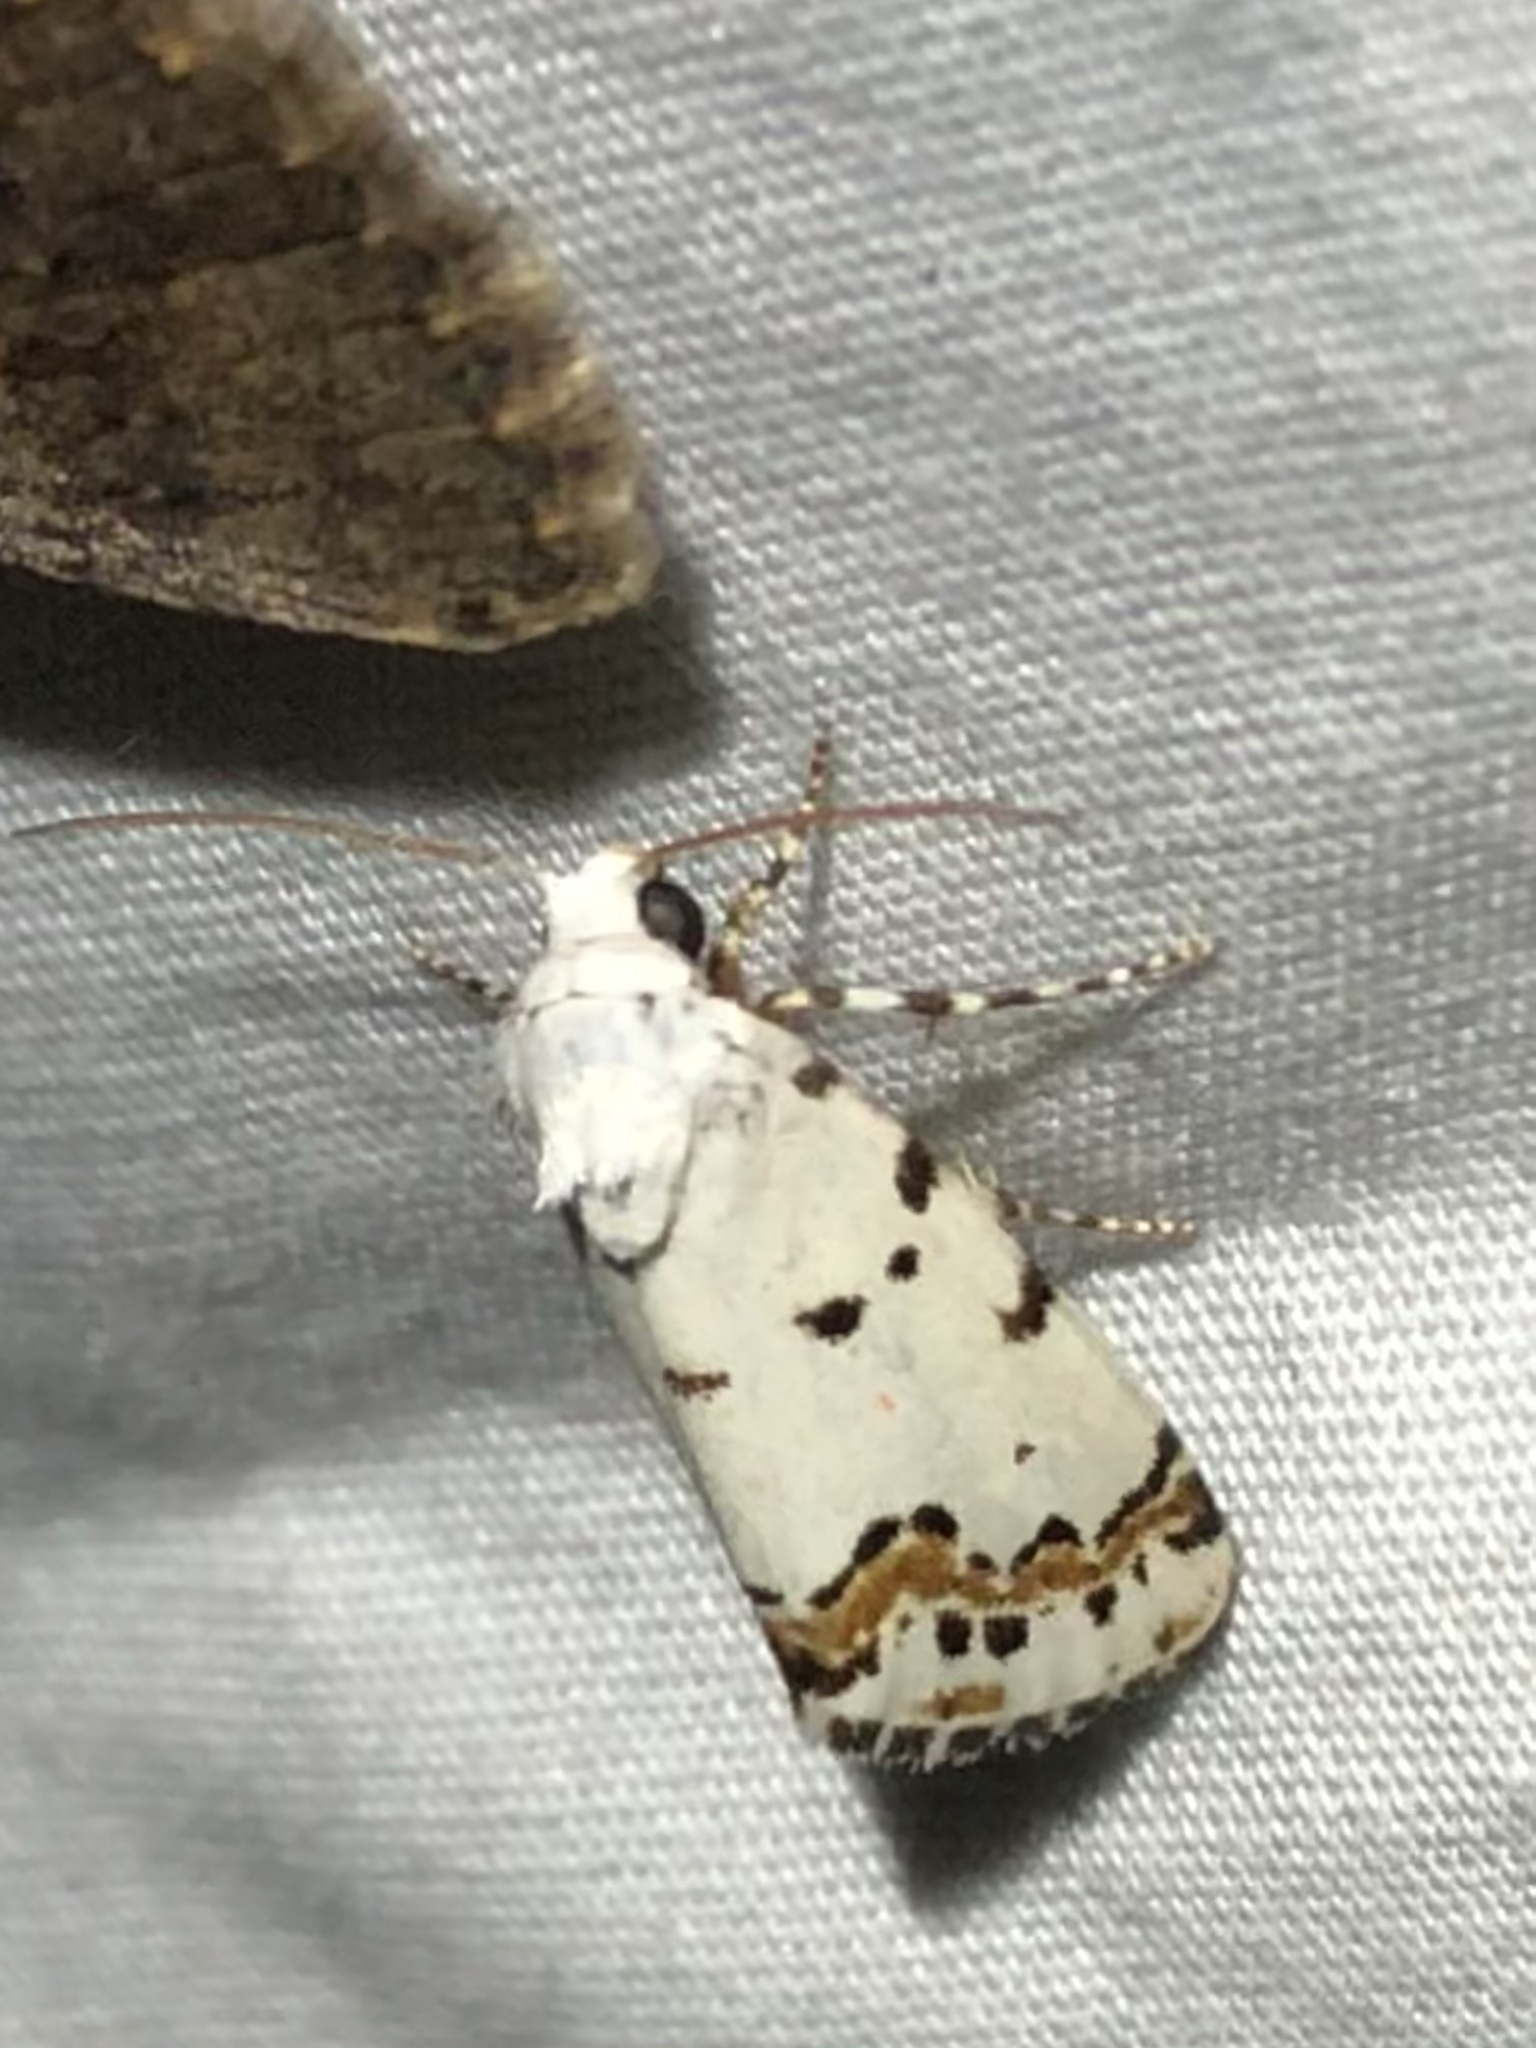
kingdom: Animalia
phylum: Arthropoda
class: Insecta
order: Lepidoptera
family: Noctuidae
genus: Grotella
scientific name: Grotella tricolor
